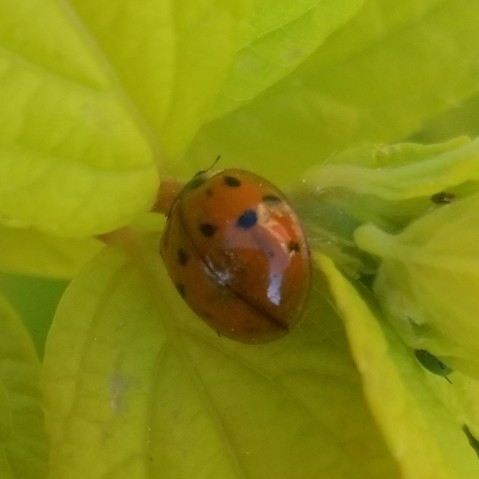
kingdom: Animalia
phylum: Arthropoda
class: Insecta
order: Coleoptera
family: Coccinellidae
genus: Harmonia
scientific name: Harmonia axyridis
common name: Harlequin ladybird
